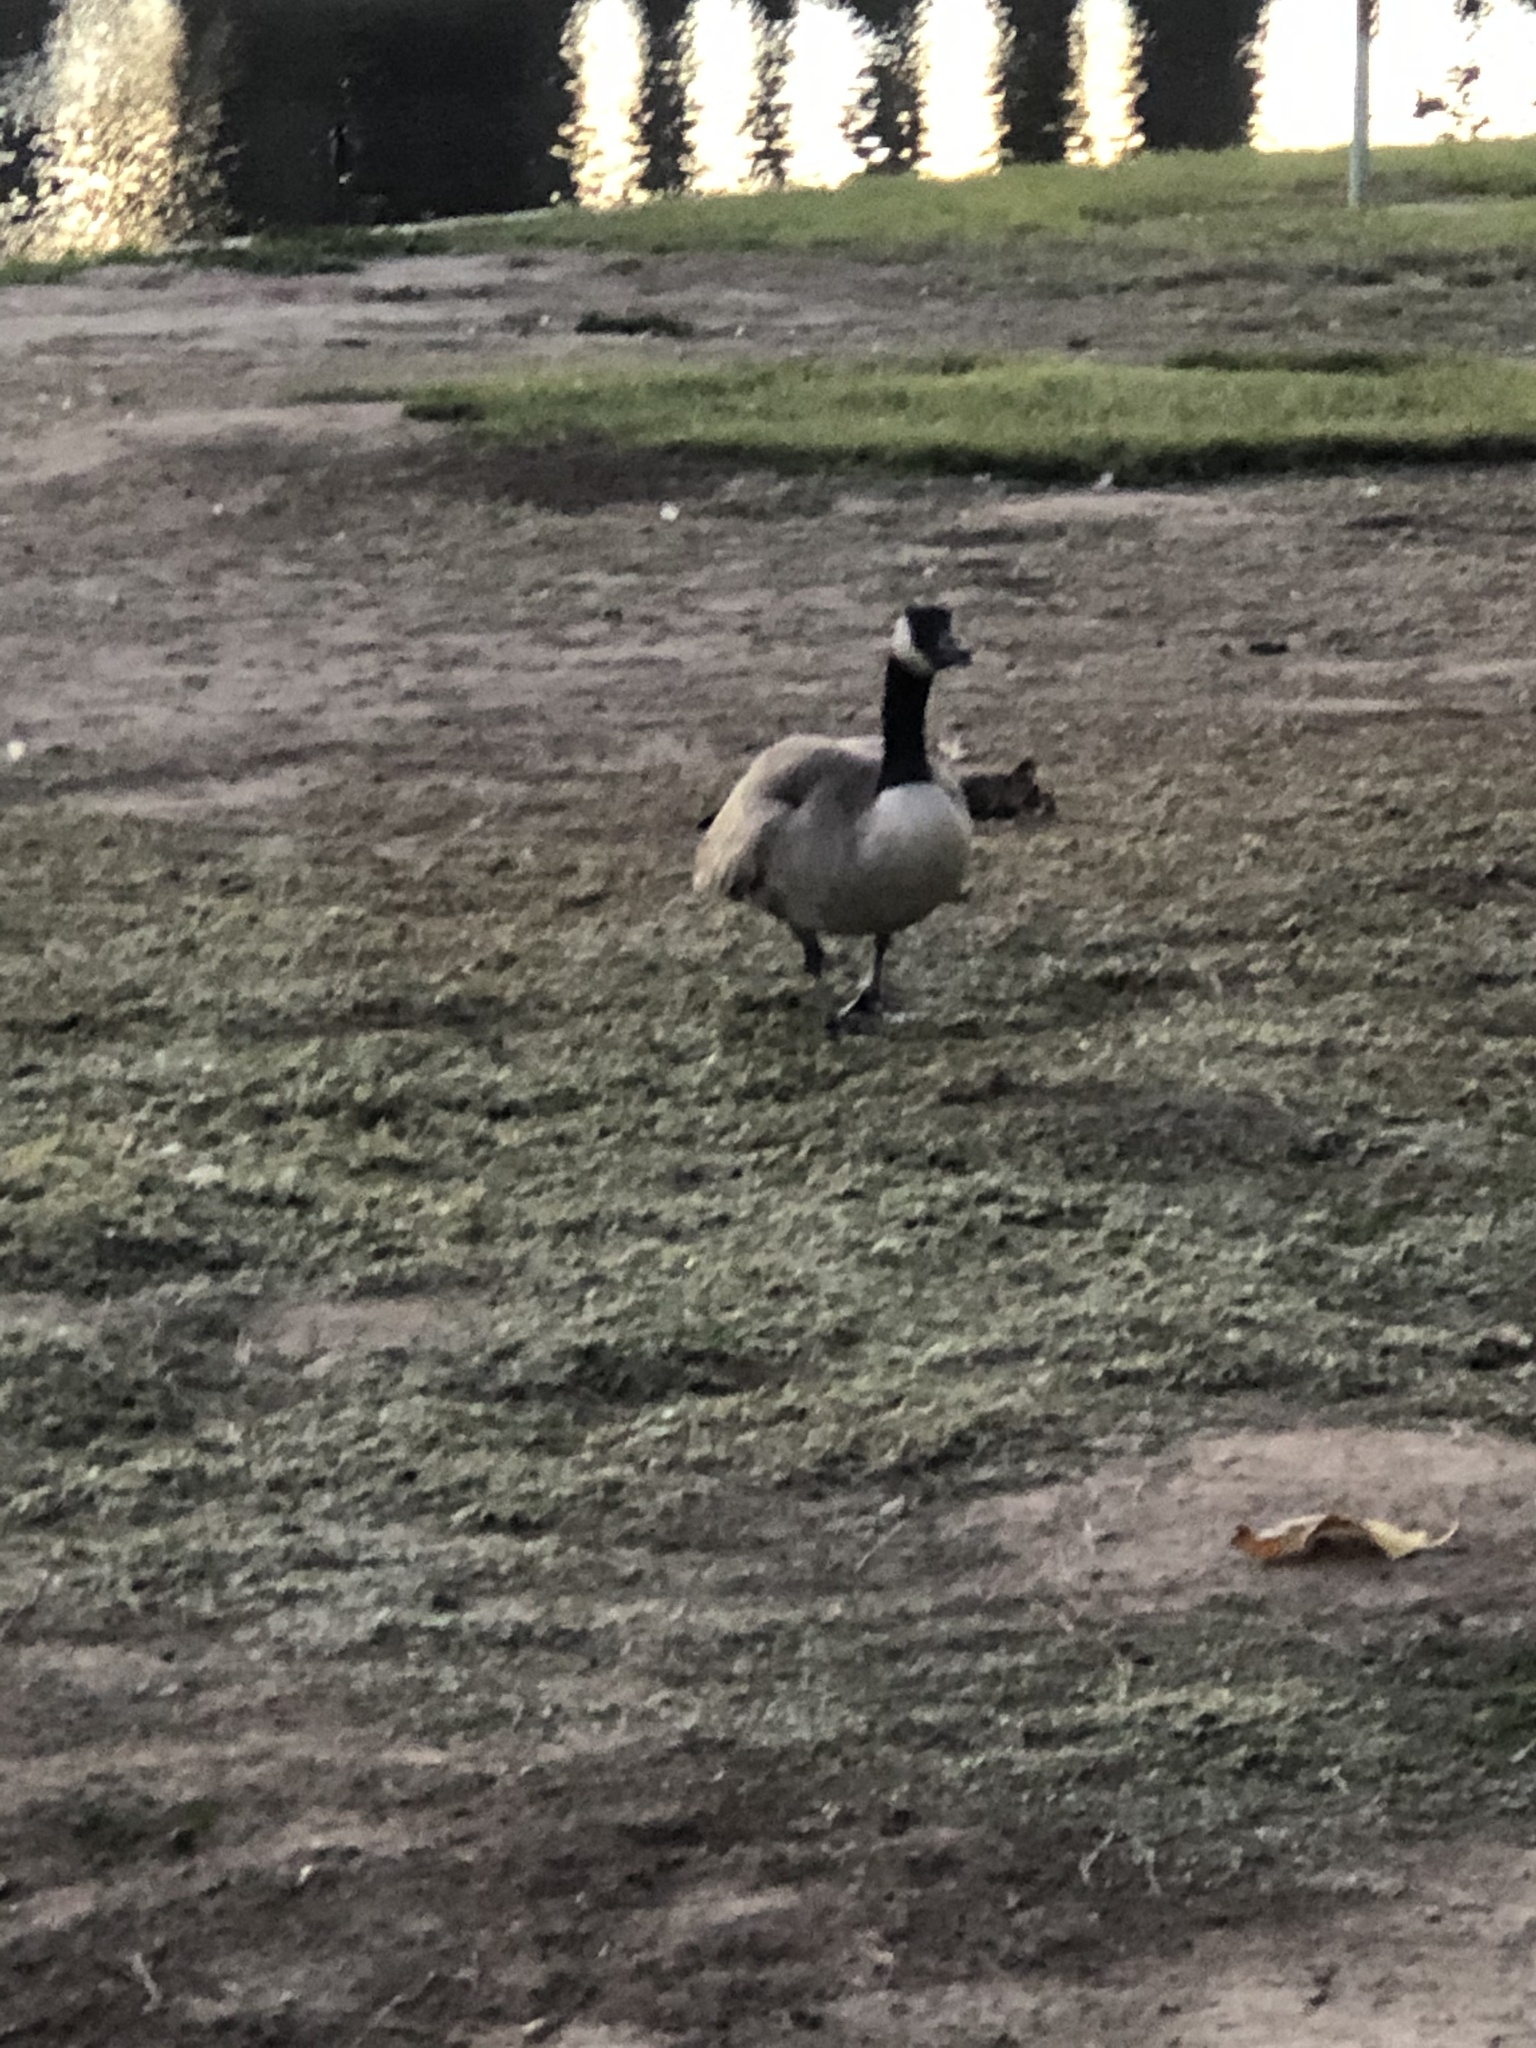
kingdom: Animalia
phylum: Chordata
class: Aves
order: Anseriformes
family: Anatidae
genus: Branta
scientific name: Branta canadensis
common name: Canada goose
